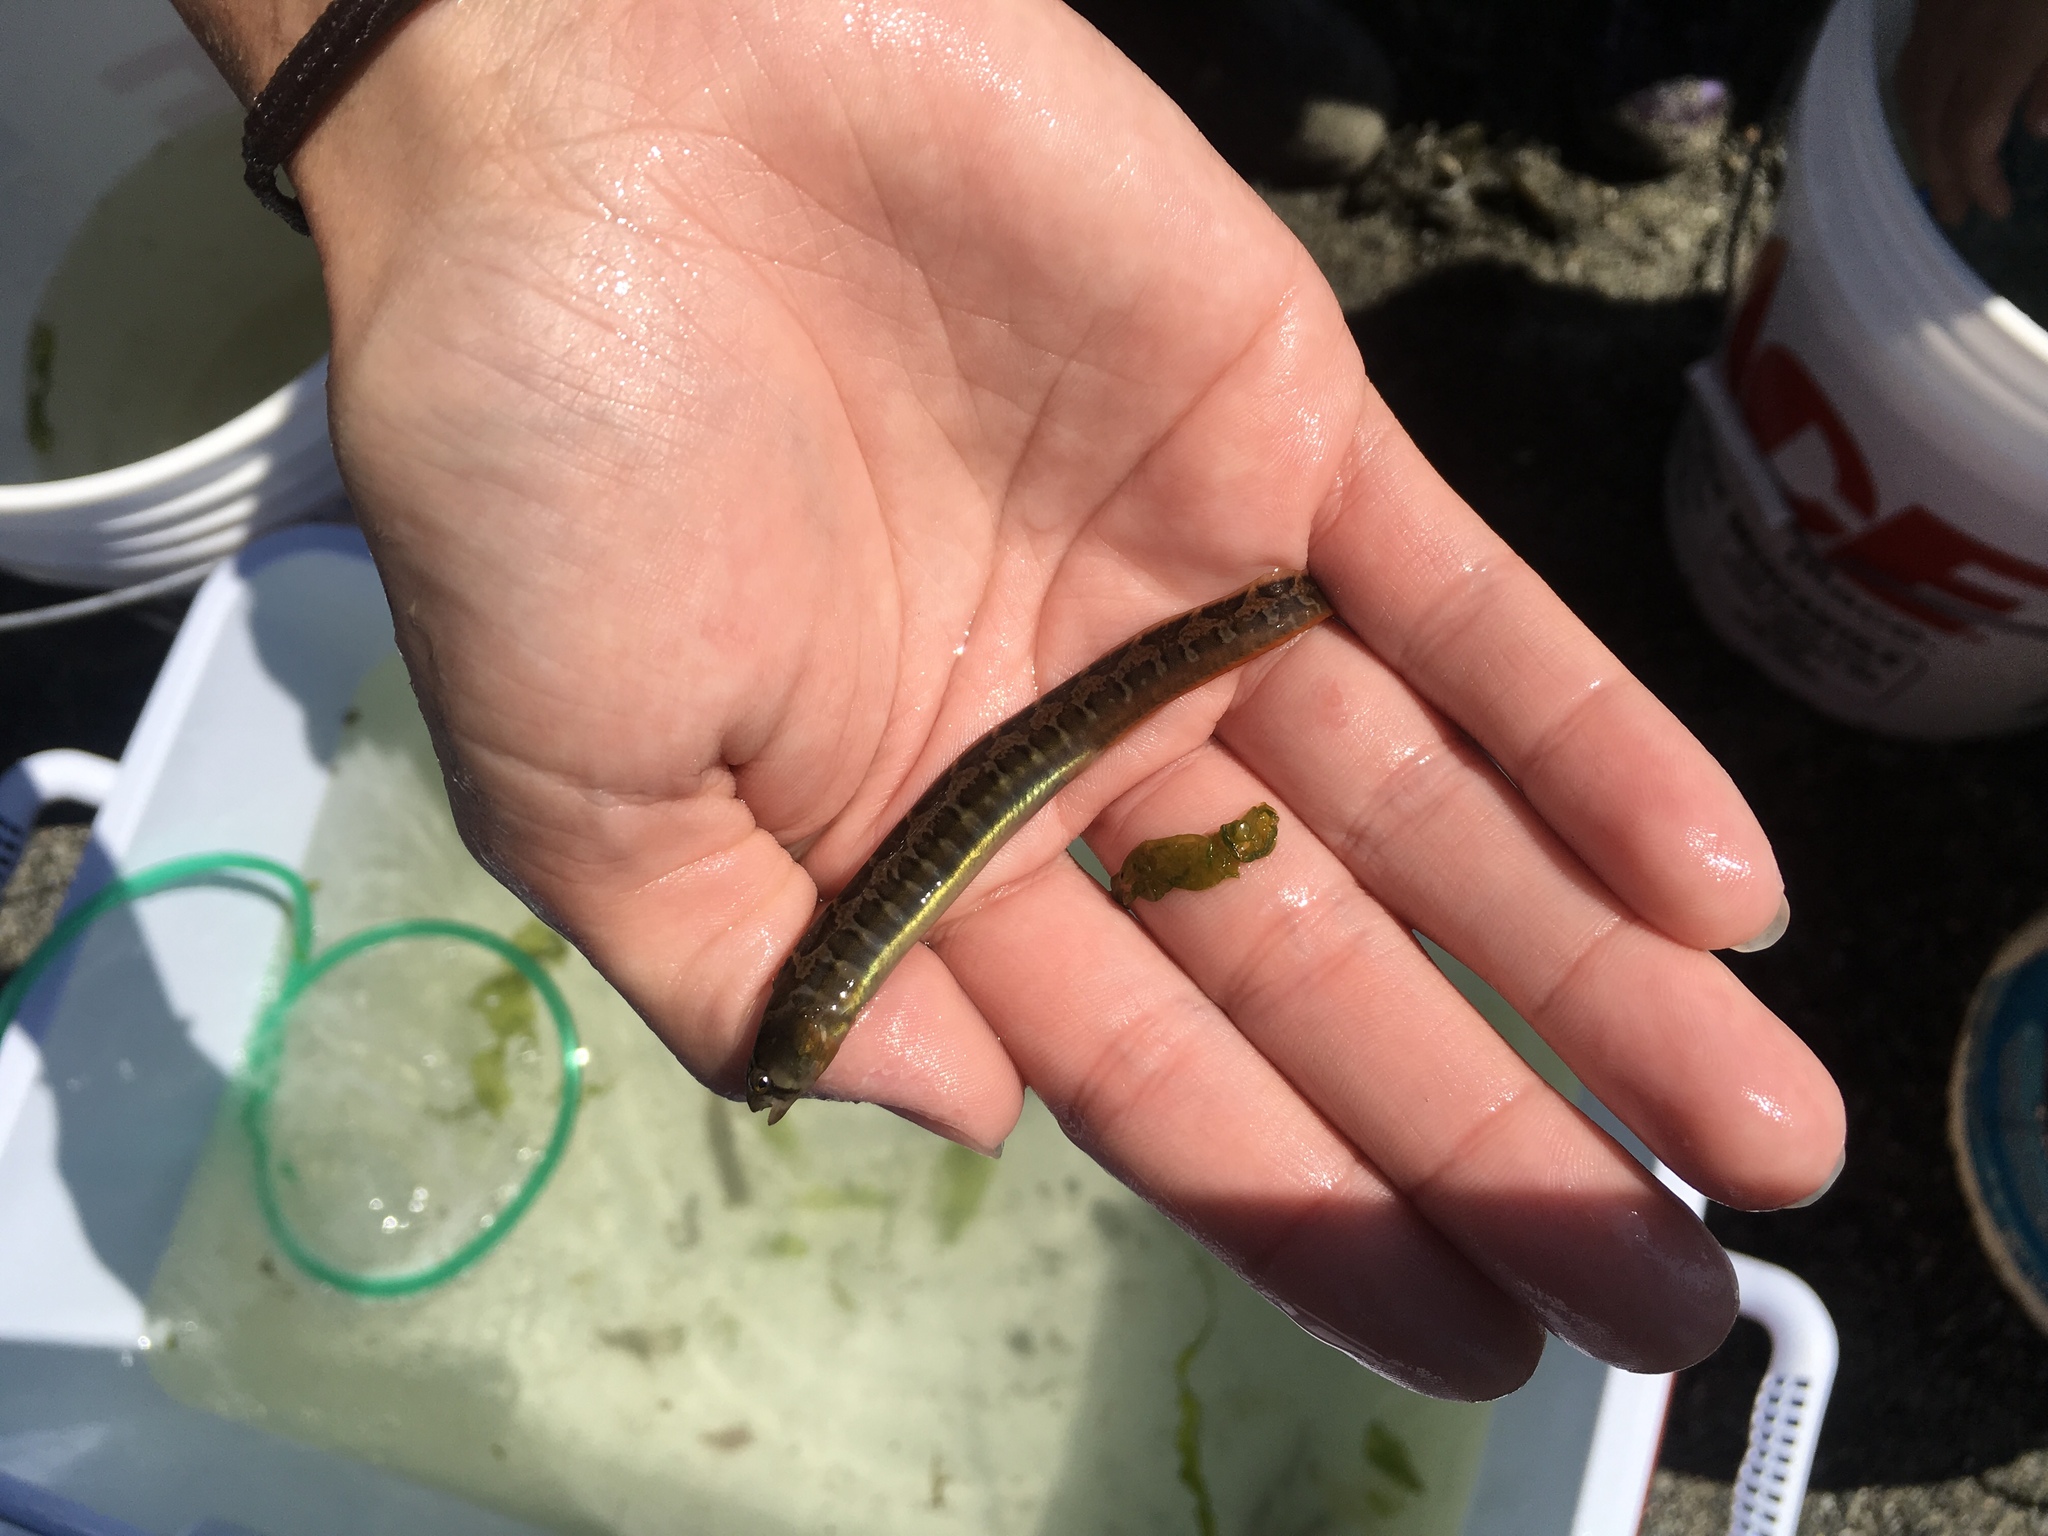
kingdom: Animalia
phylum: Chordata
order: Perciformes
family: Pholidae
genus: Pholis
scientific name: Pholis ornata
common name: Saddleback gunnel
